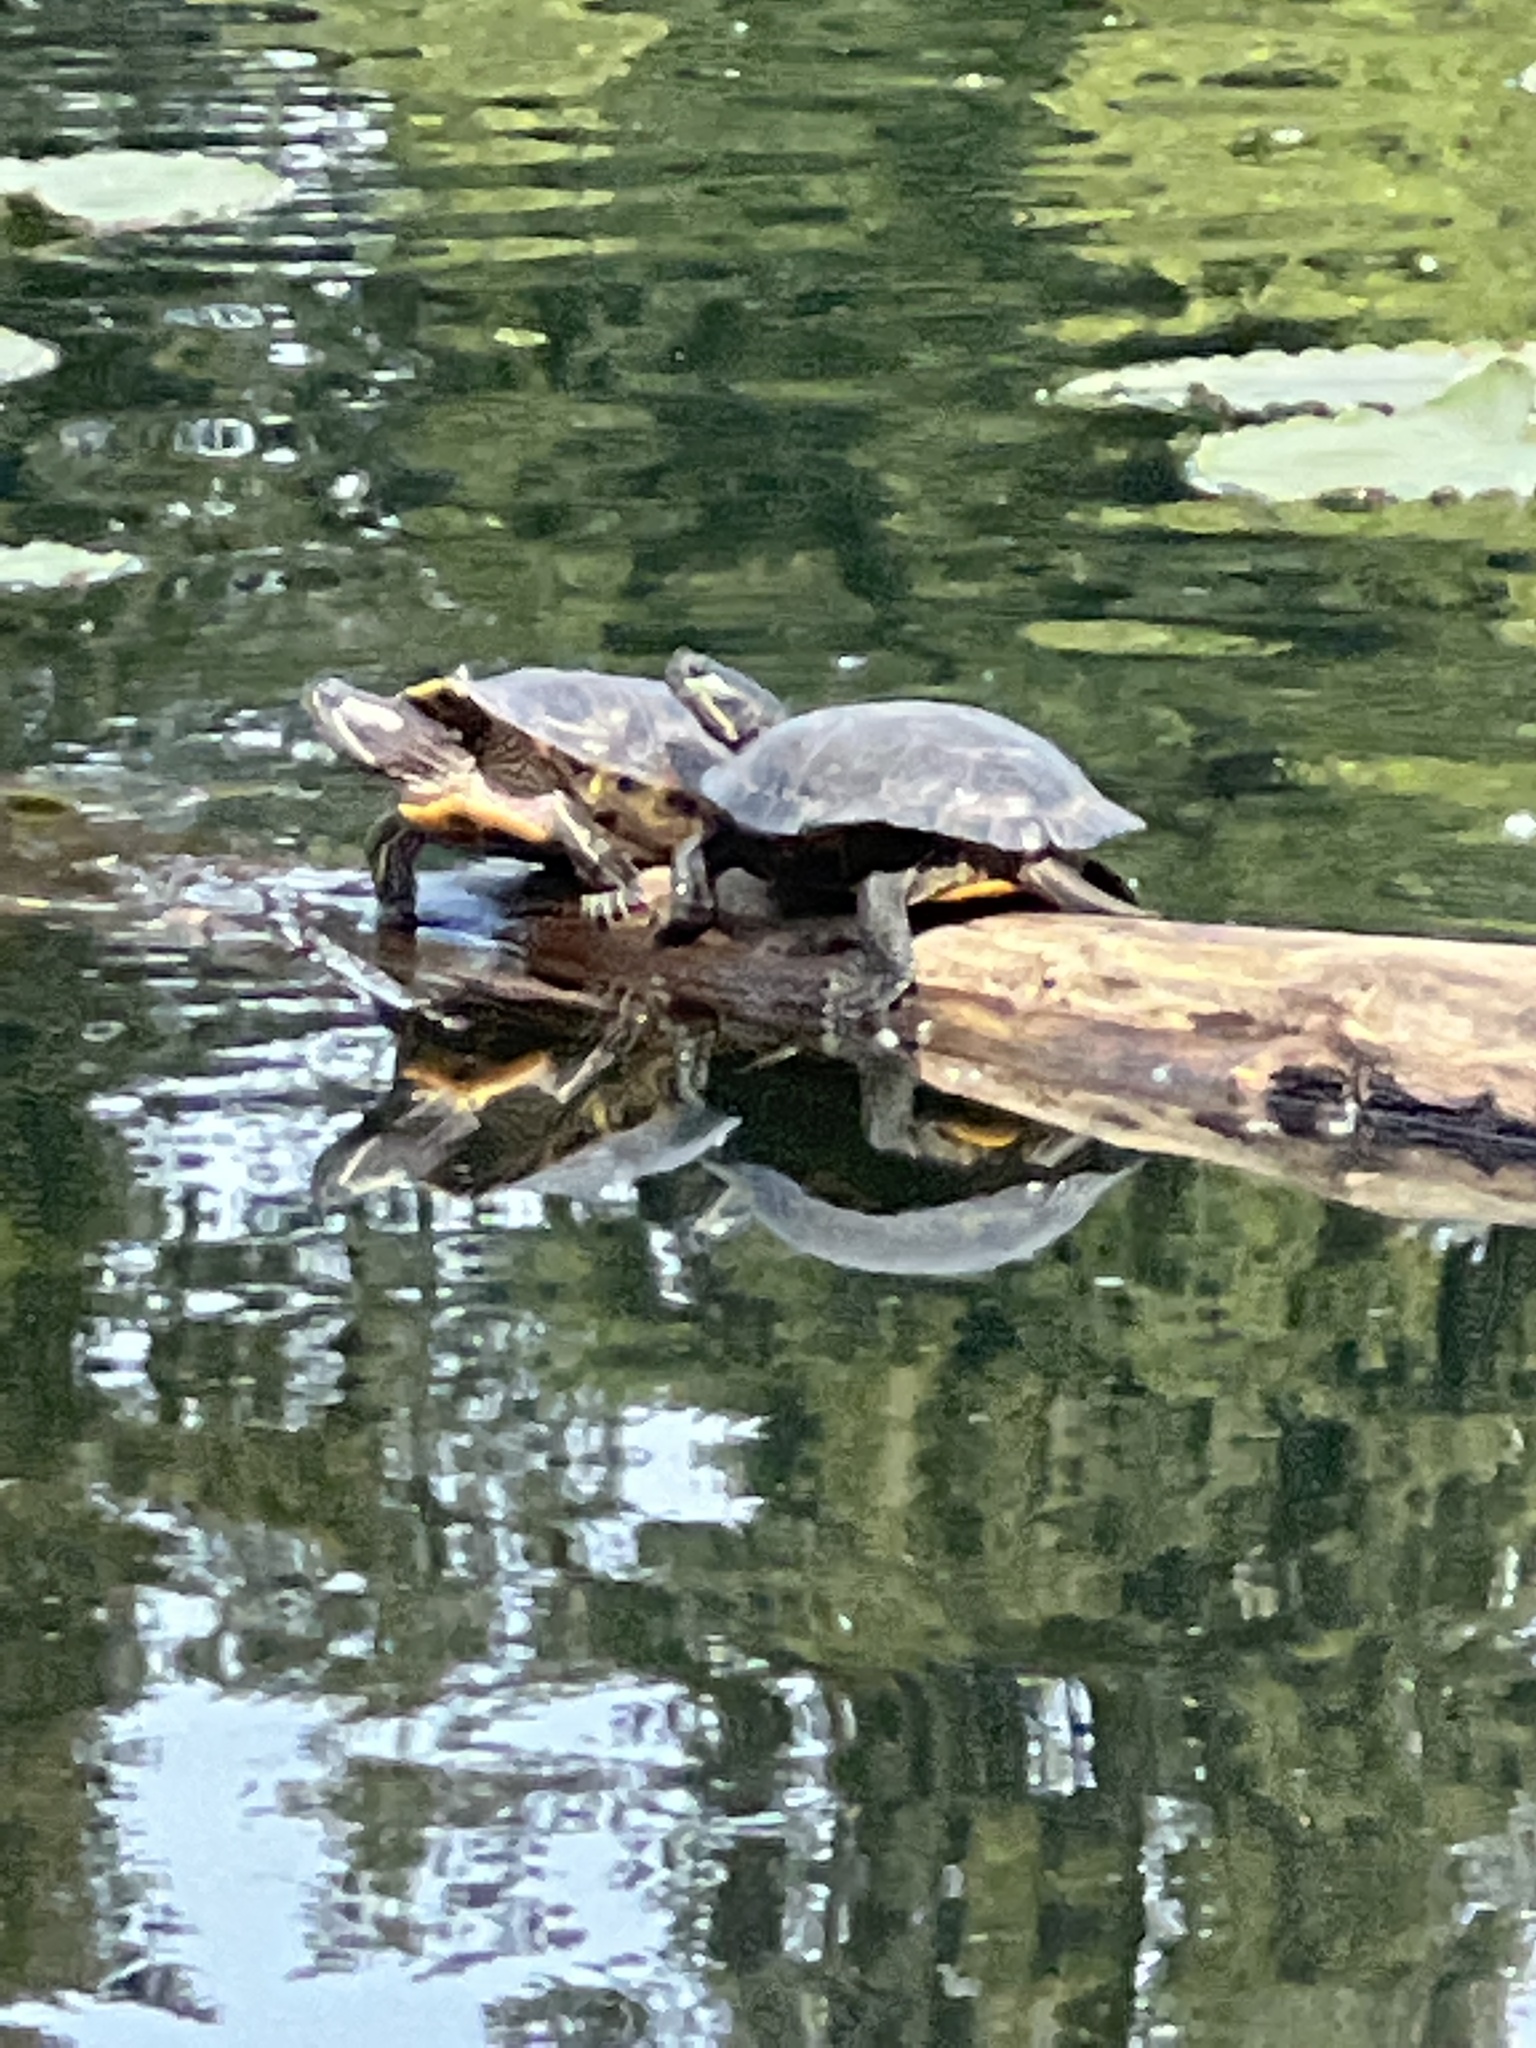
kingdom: Animalia
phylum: Chordata
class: Testudines
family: Emydidae
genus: Trachemys
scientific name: Trachemys scripta
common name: Slider
